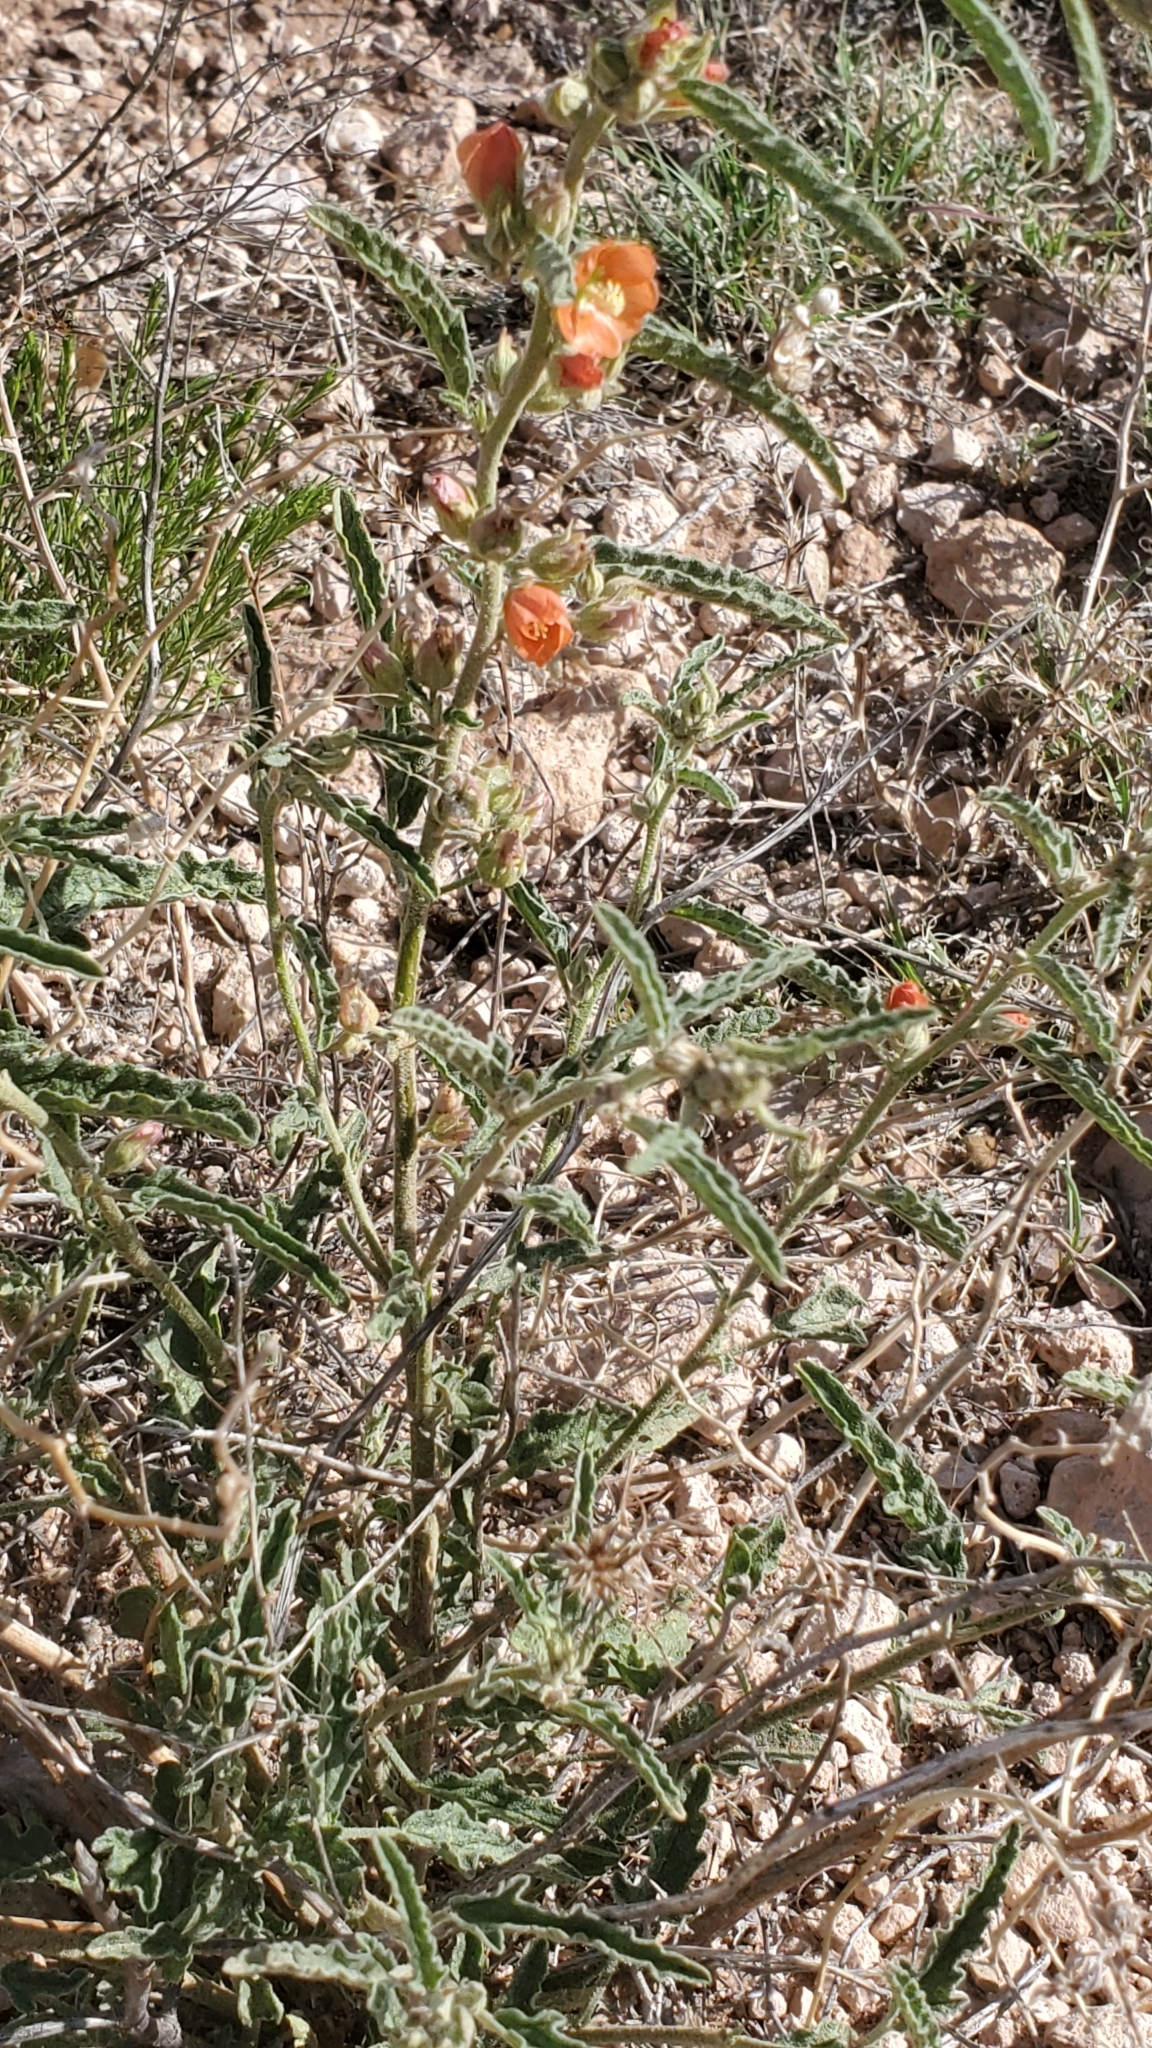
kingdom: Plantae
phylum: Tracheophyta
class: Magnoliopsida
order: Malvales
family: Malvaceae
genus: Sphaeralcea
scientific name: Sphaeralcea angustifolia
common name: Copper globe-mallow
